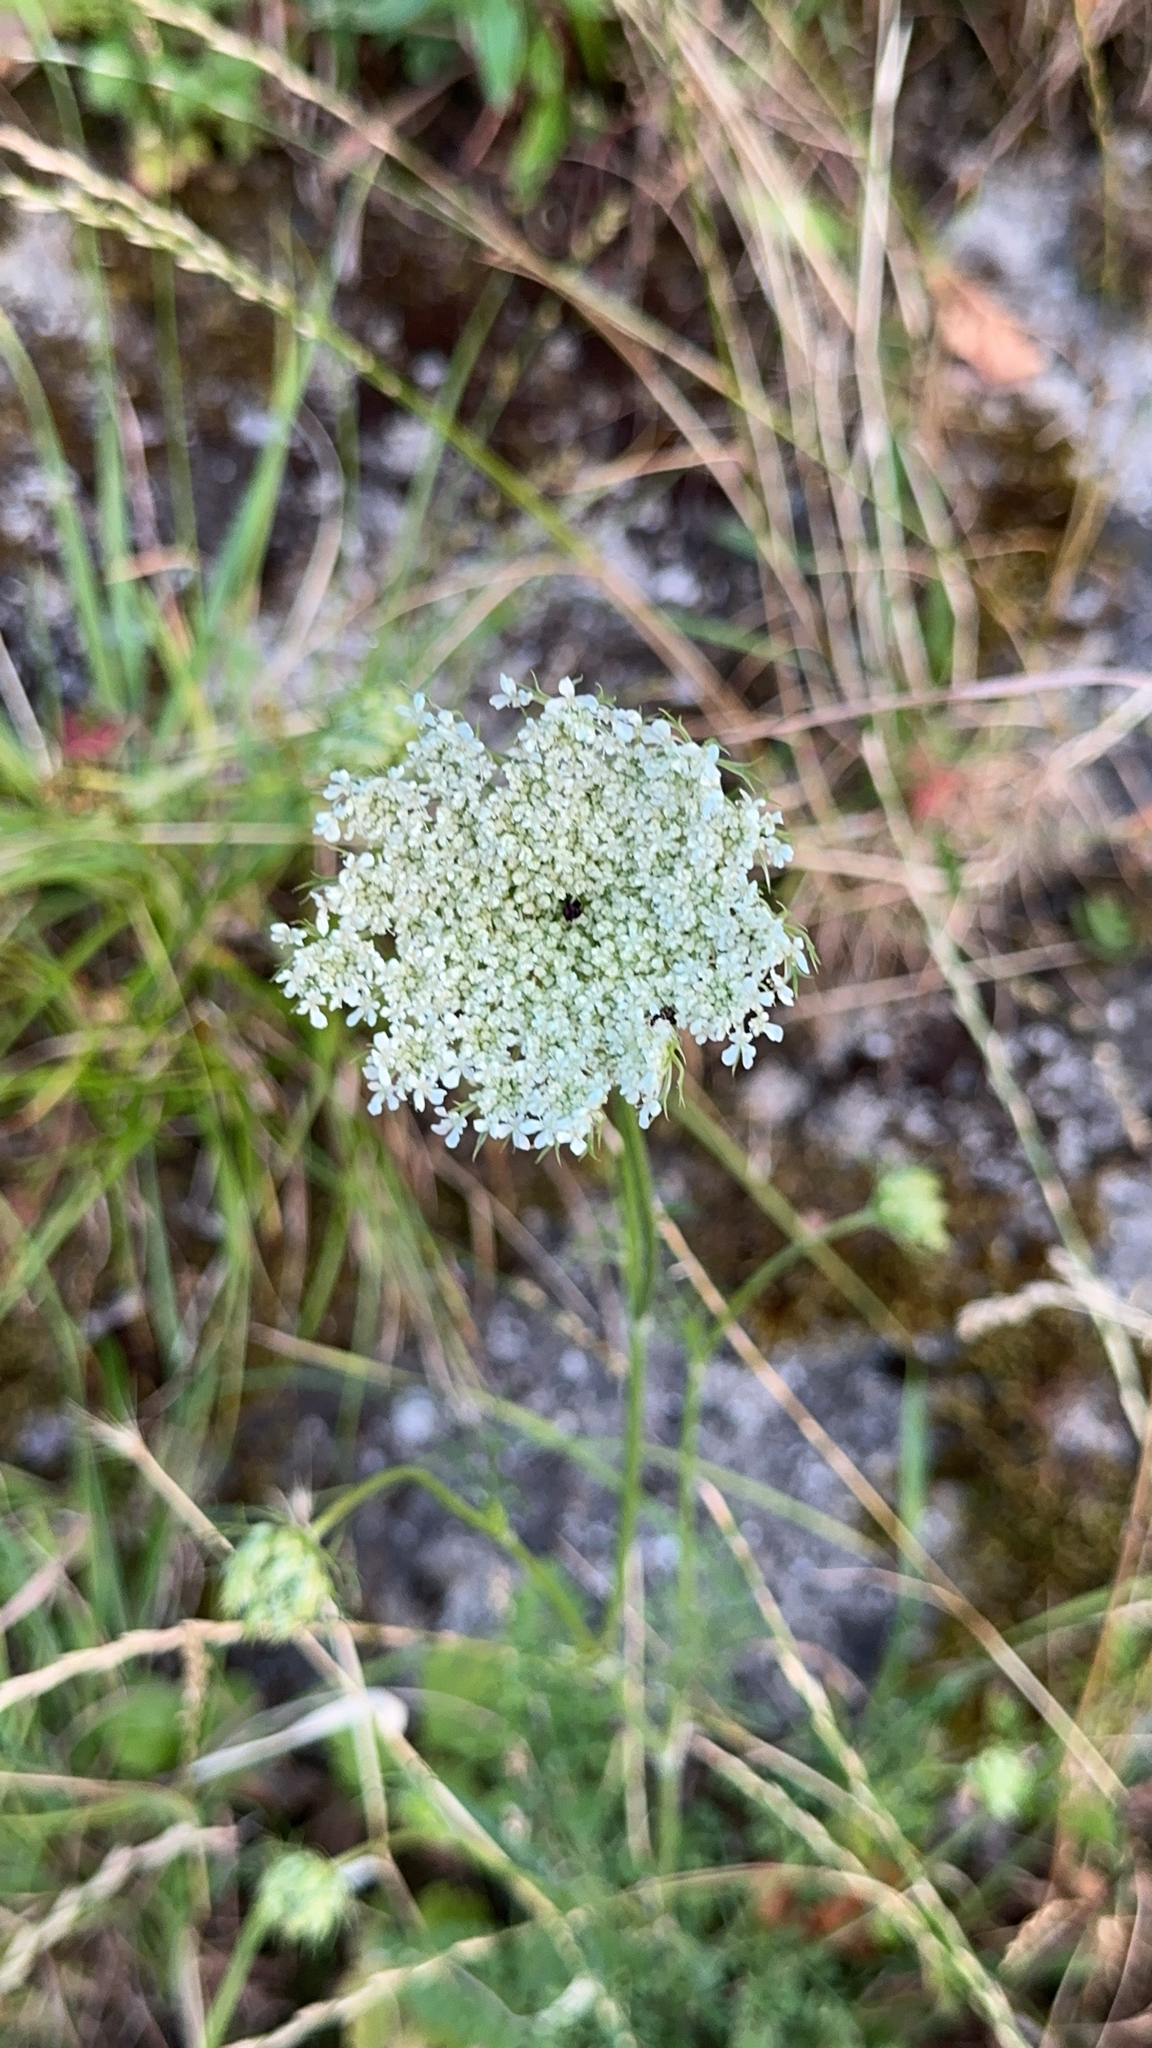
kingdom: Plantae
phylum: Tracheophyta
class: Magnoliopsida
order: Apiales
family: Apiaceae
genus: Daucus
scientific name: Daucus carota
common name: Wild carrot
